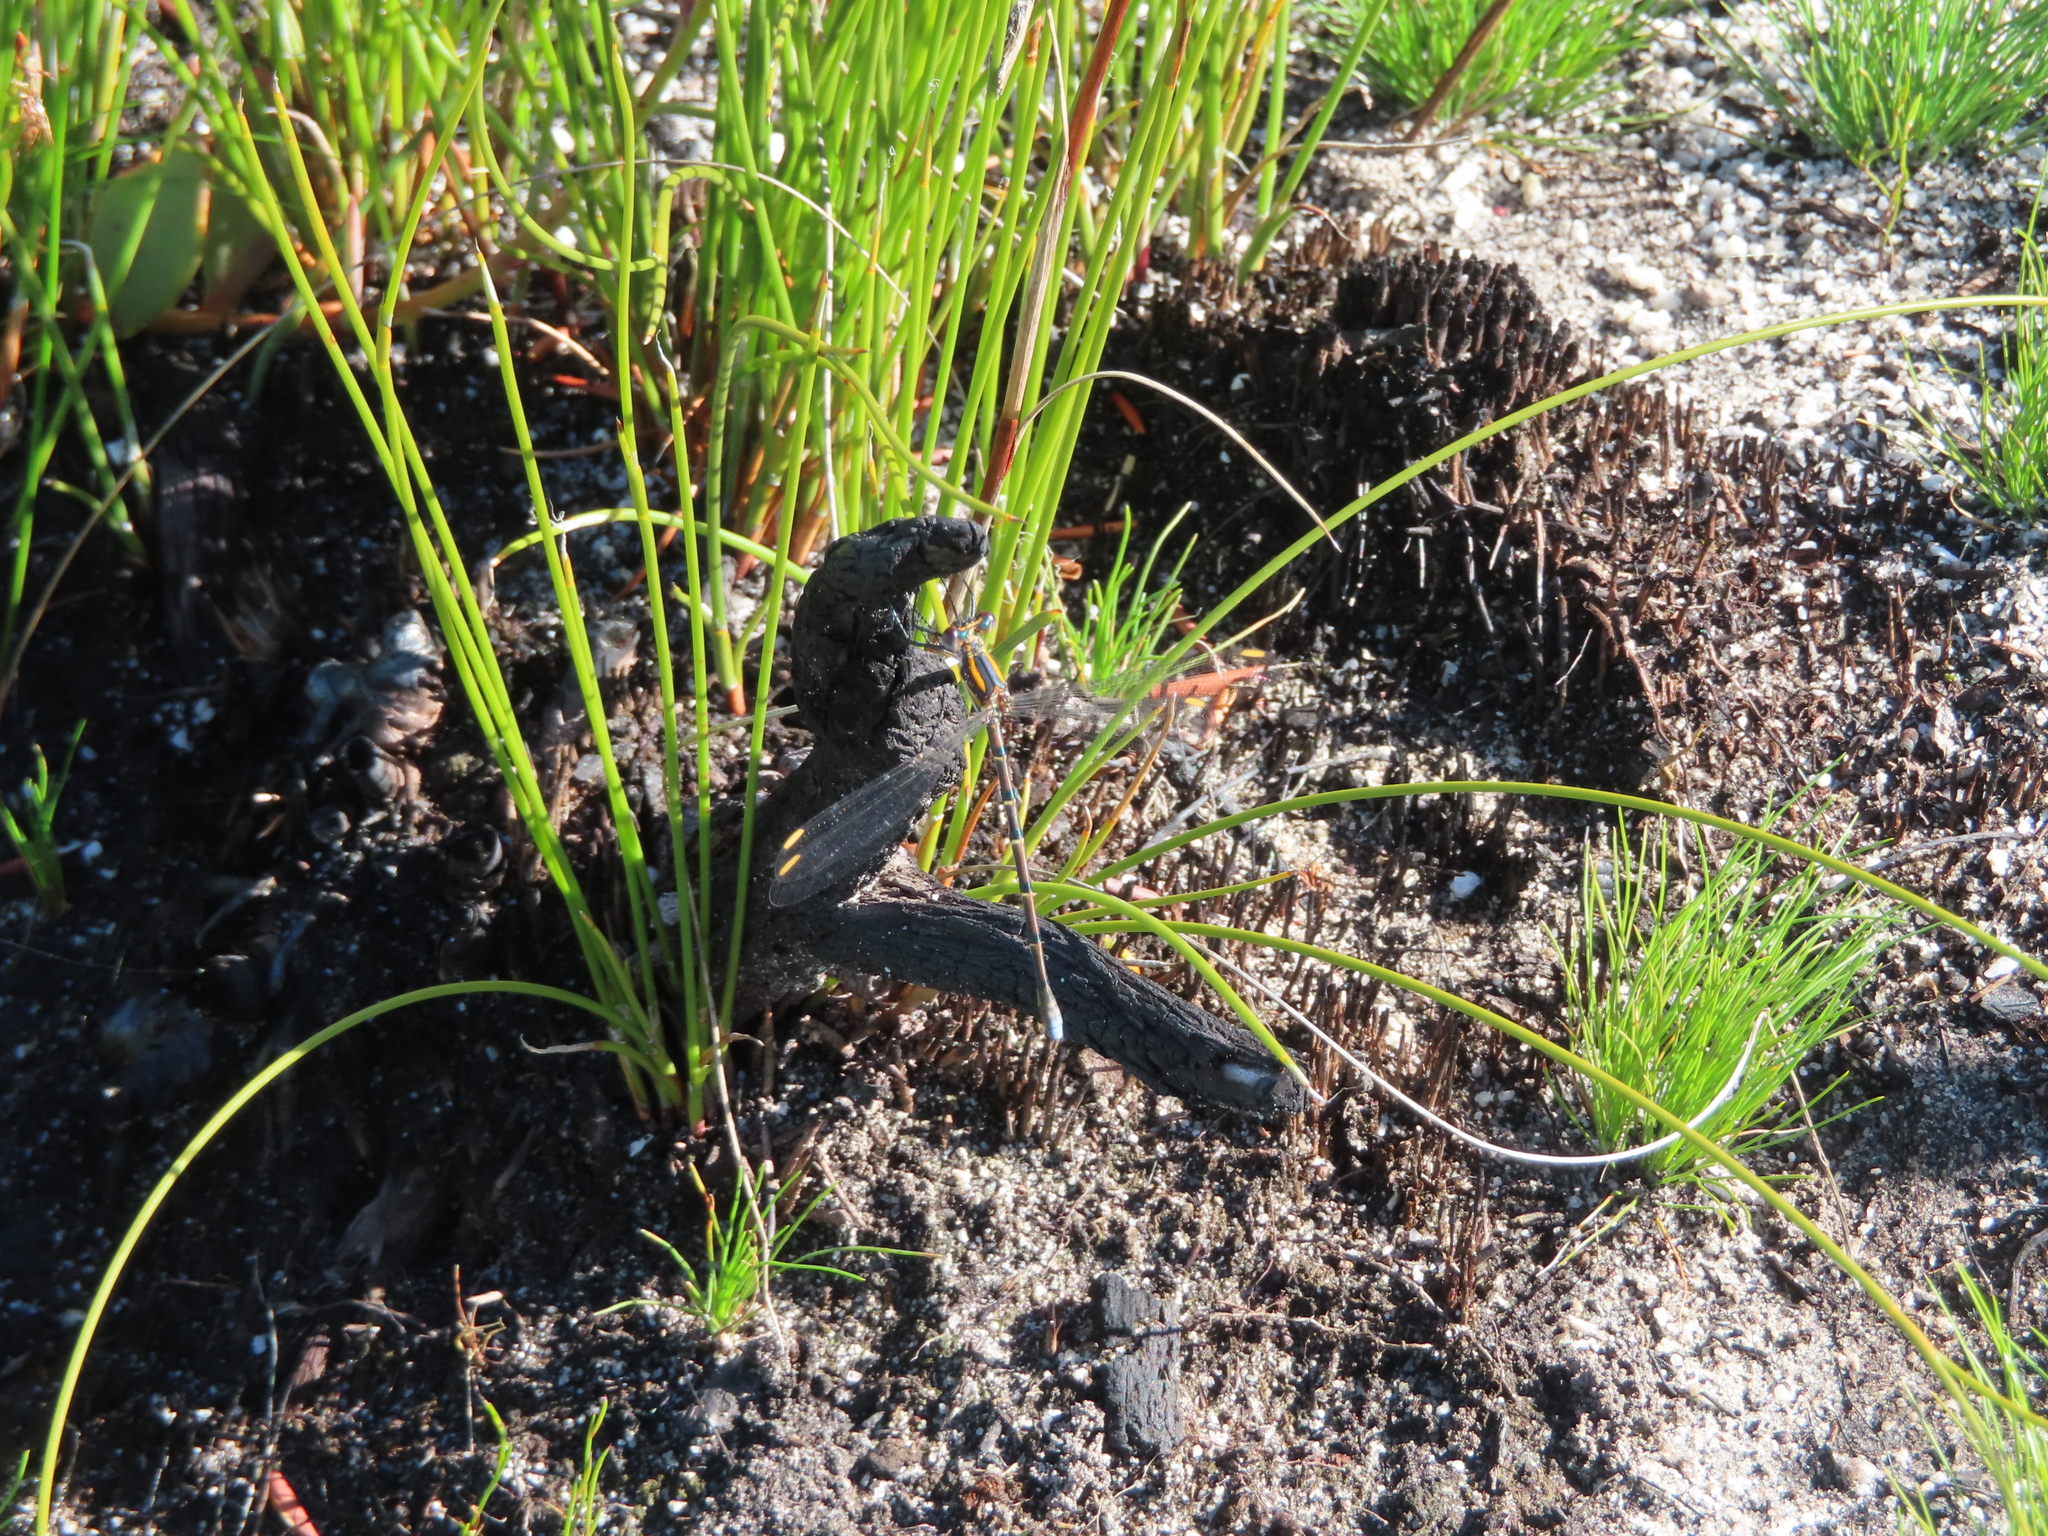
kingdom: Animalia
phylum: Arthropoda
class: Insecta
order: Odonata
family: Synlestidae
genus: Chlorolestes
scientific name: Chlorolestes conspicuus
